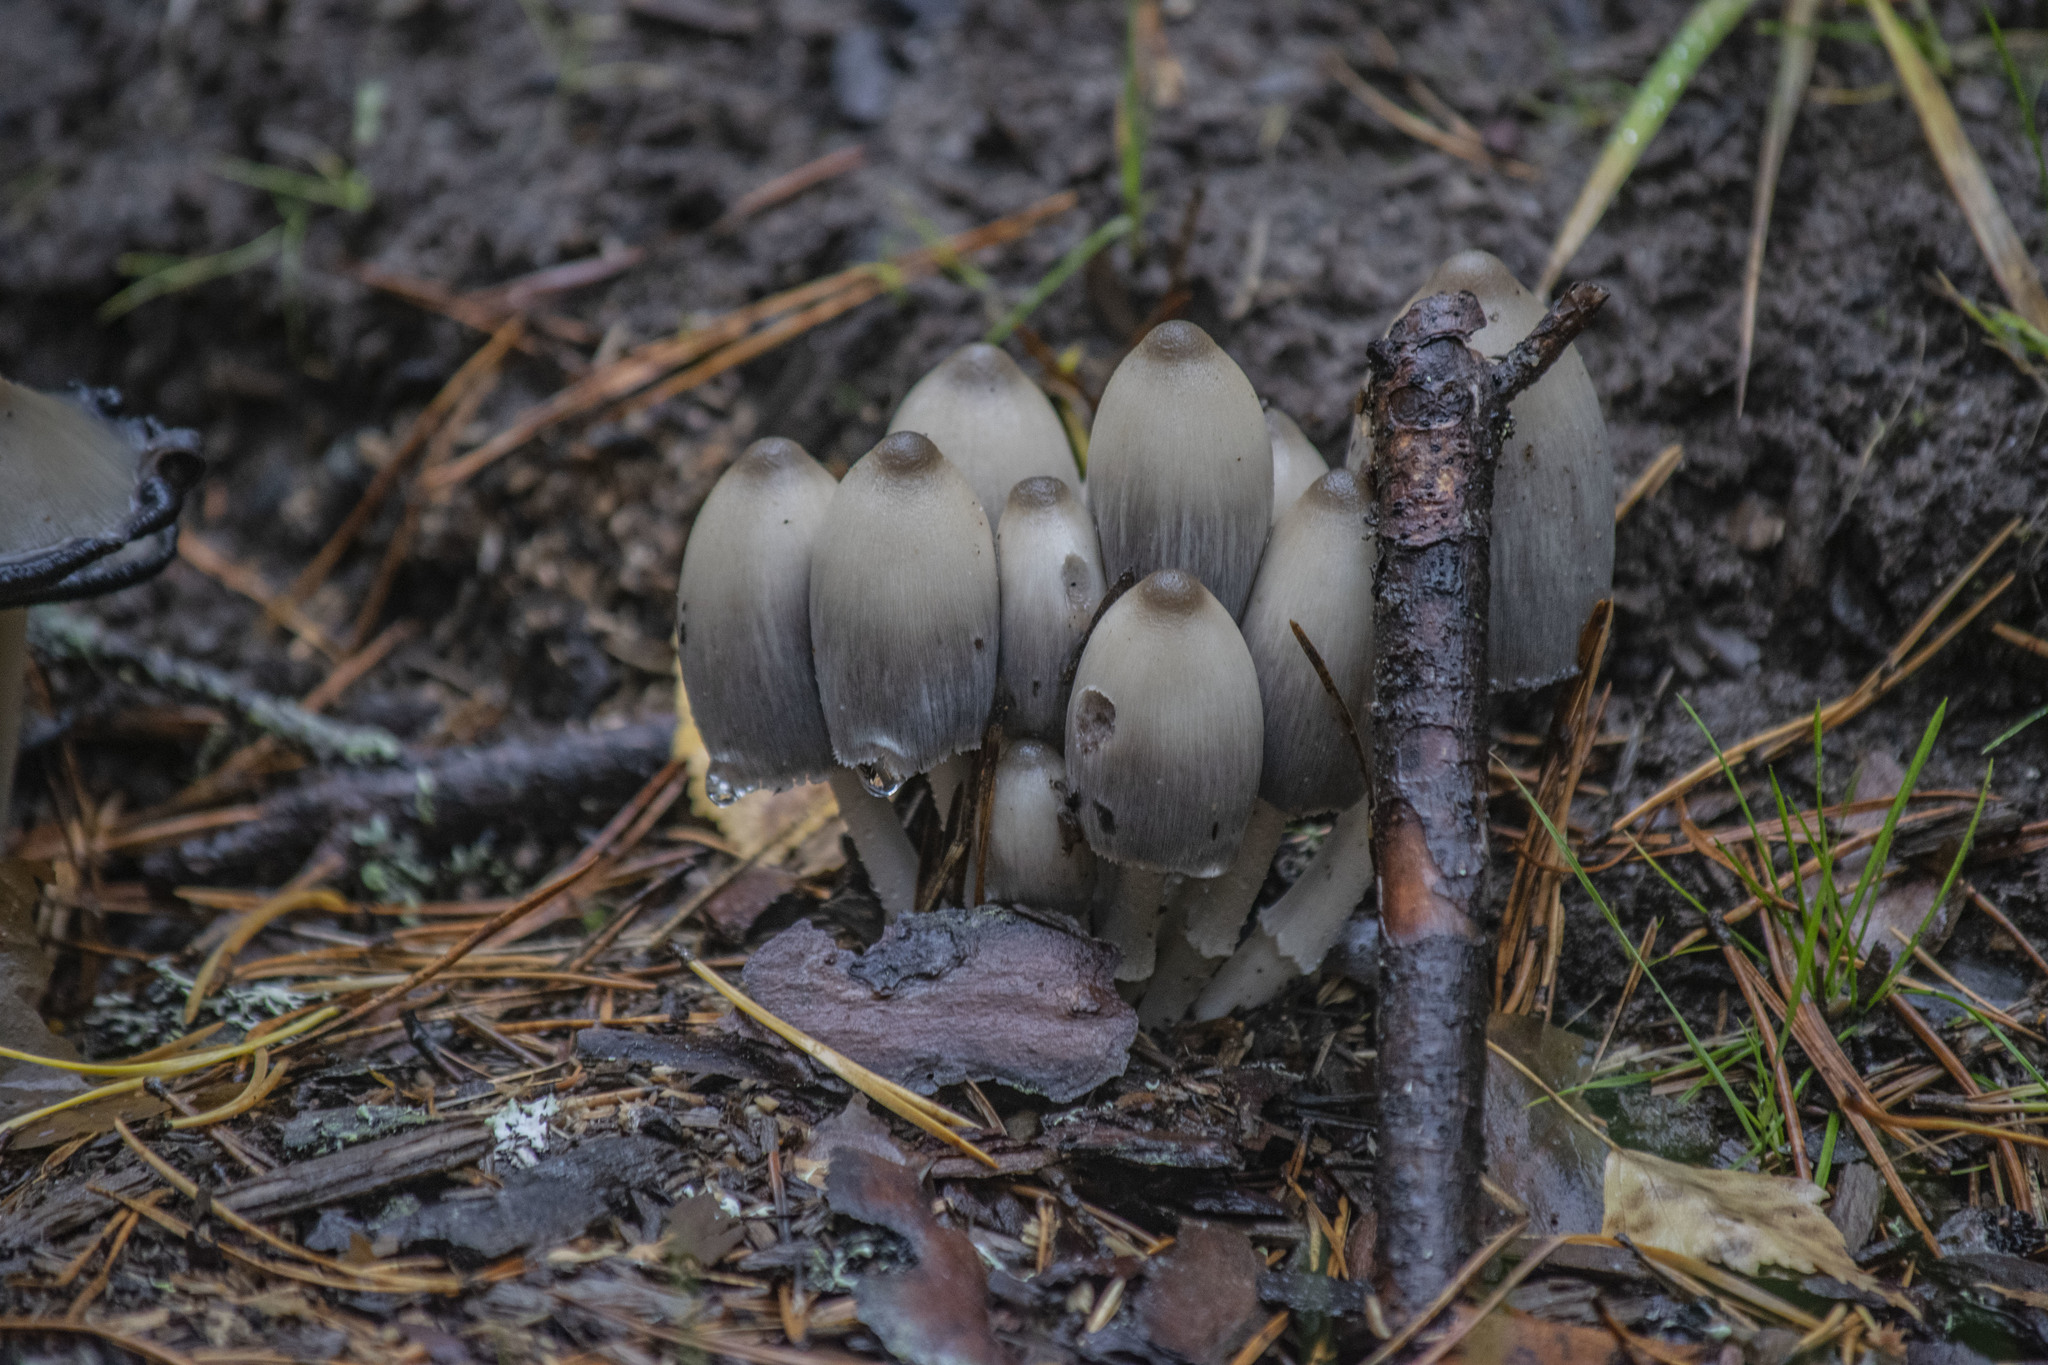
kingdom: Fungi
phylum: Basidiomycota
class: Agaricomycetes
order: Agaricales
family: Psathyrellaceae
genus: Coprinopsis
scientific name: Coprinopsis acuminata
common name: Humpback inkcap
